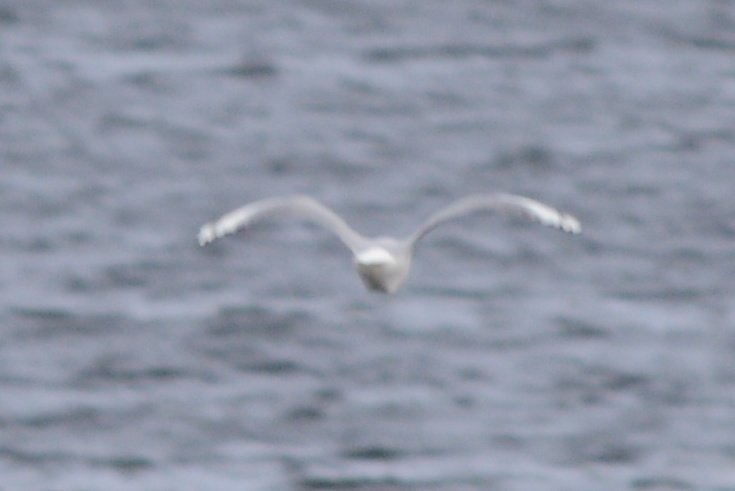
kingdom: Animalia
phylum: Chordata
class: Aves
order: Charadriiformes
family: Laridae
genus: Chroicocephalus
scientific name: Chroicocephalus novaehollandiae
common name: Silver gull
